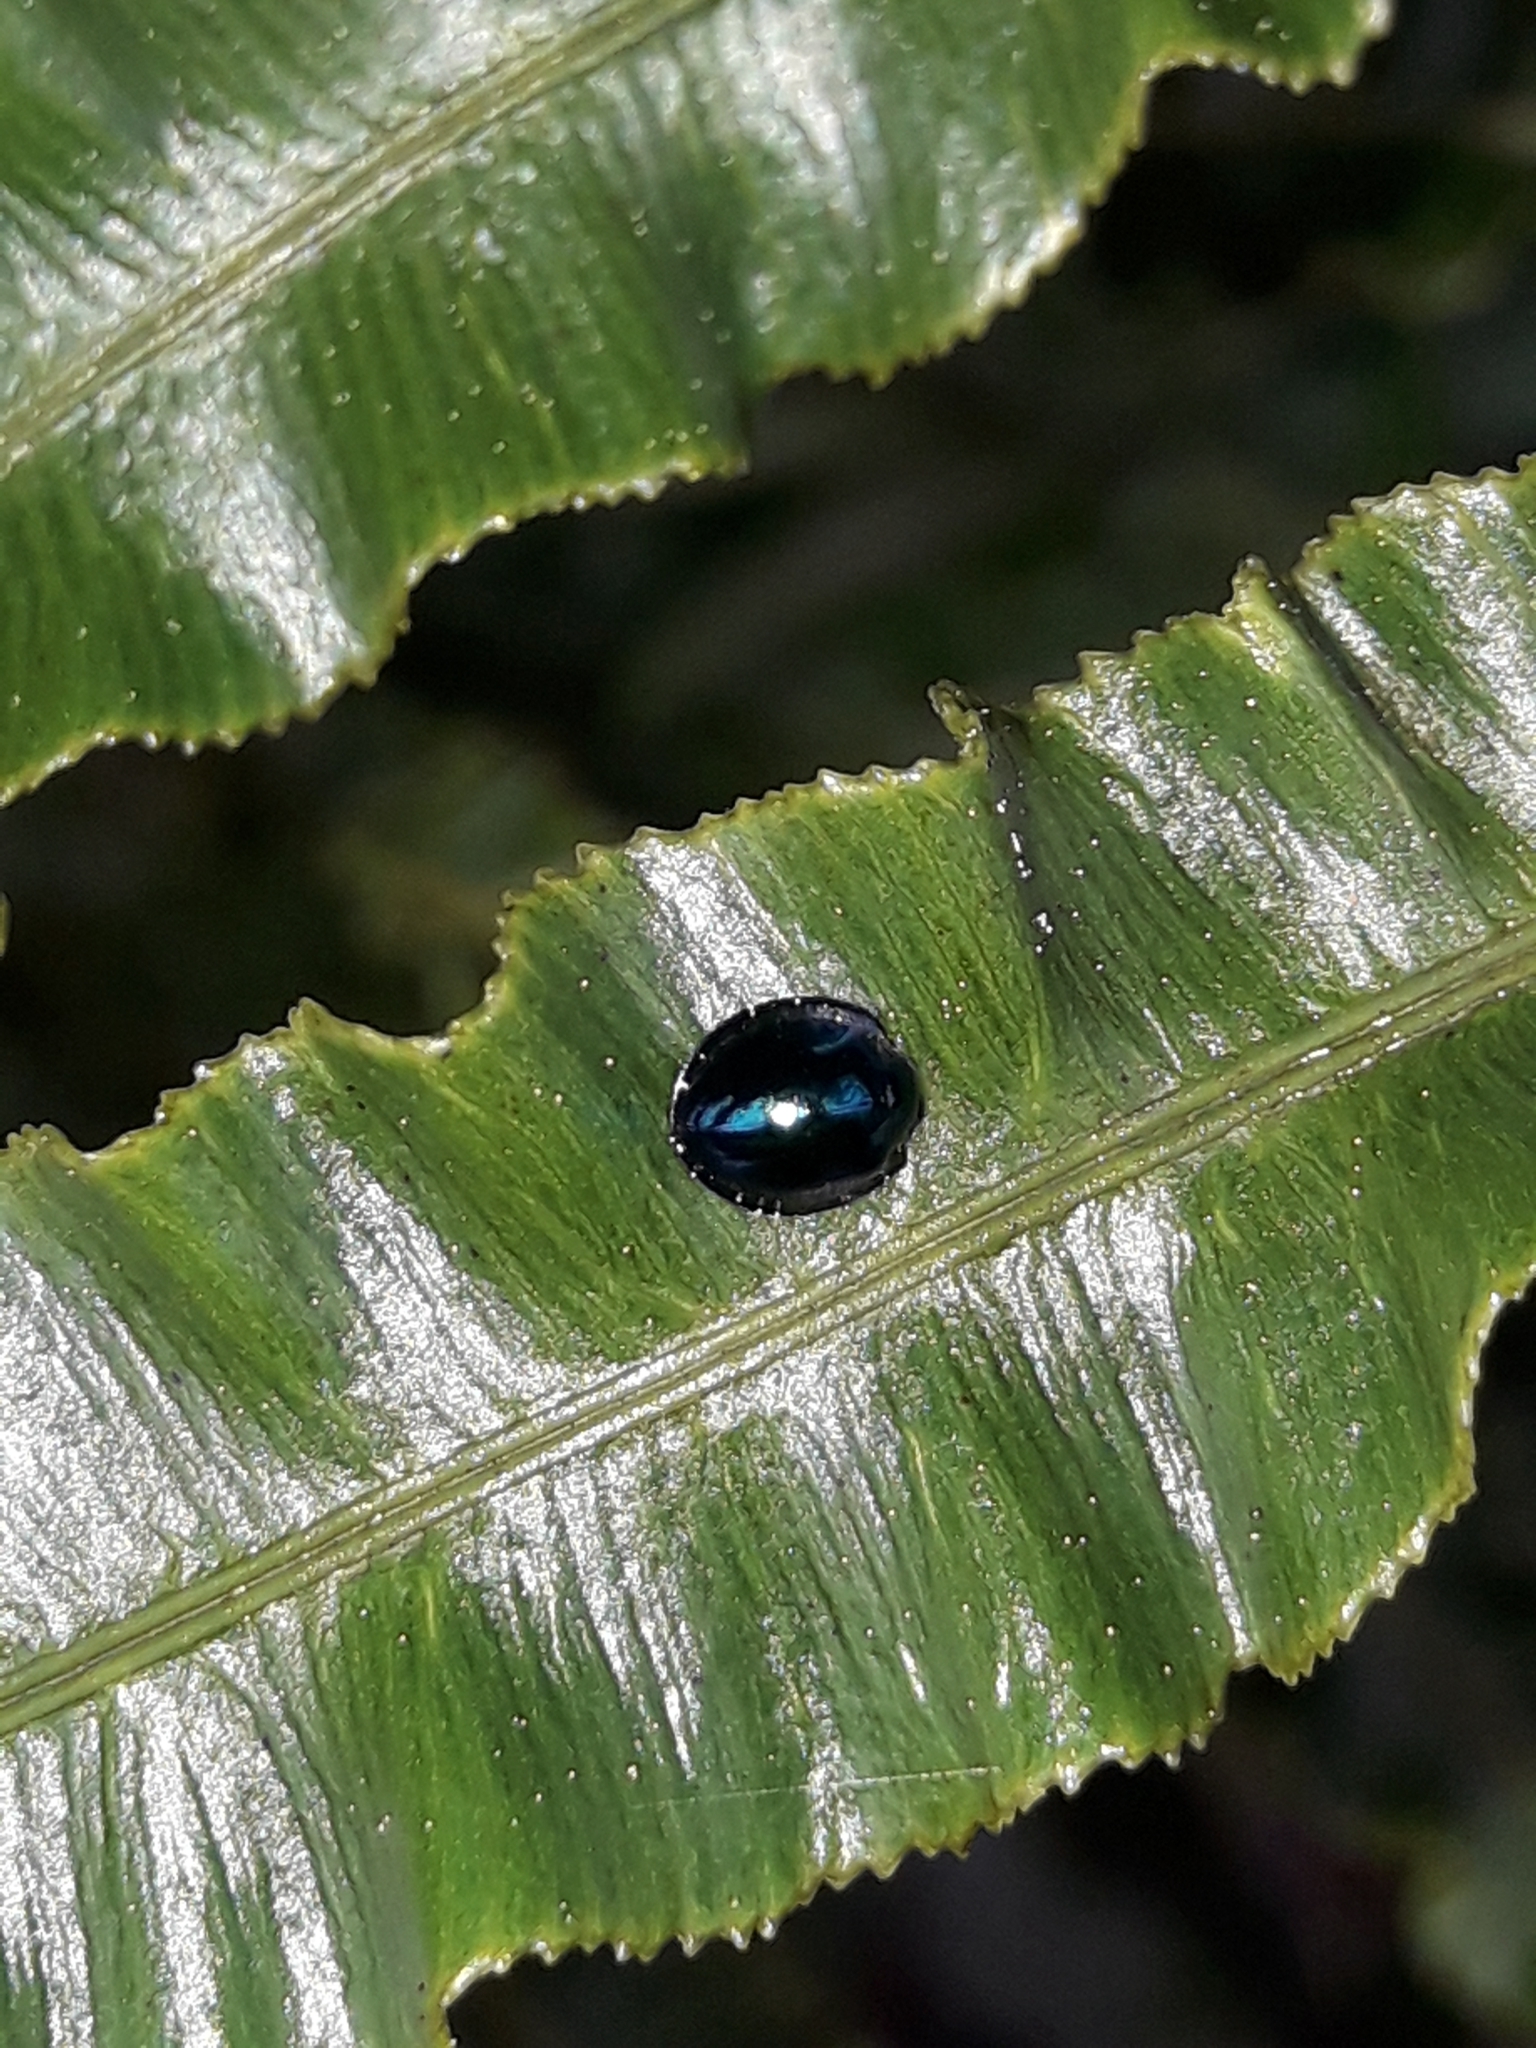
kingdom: Animalia
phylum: Arthropoda
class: Insecta
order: Coleoptera
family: Coccinellidae
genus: Halmus
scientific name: Halmus chalybeus
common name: Steel blue ladybird beetle
